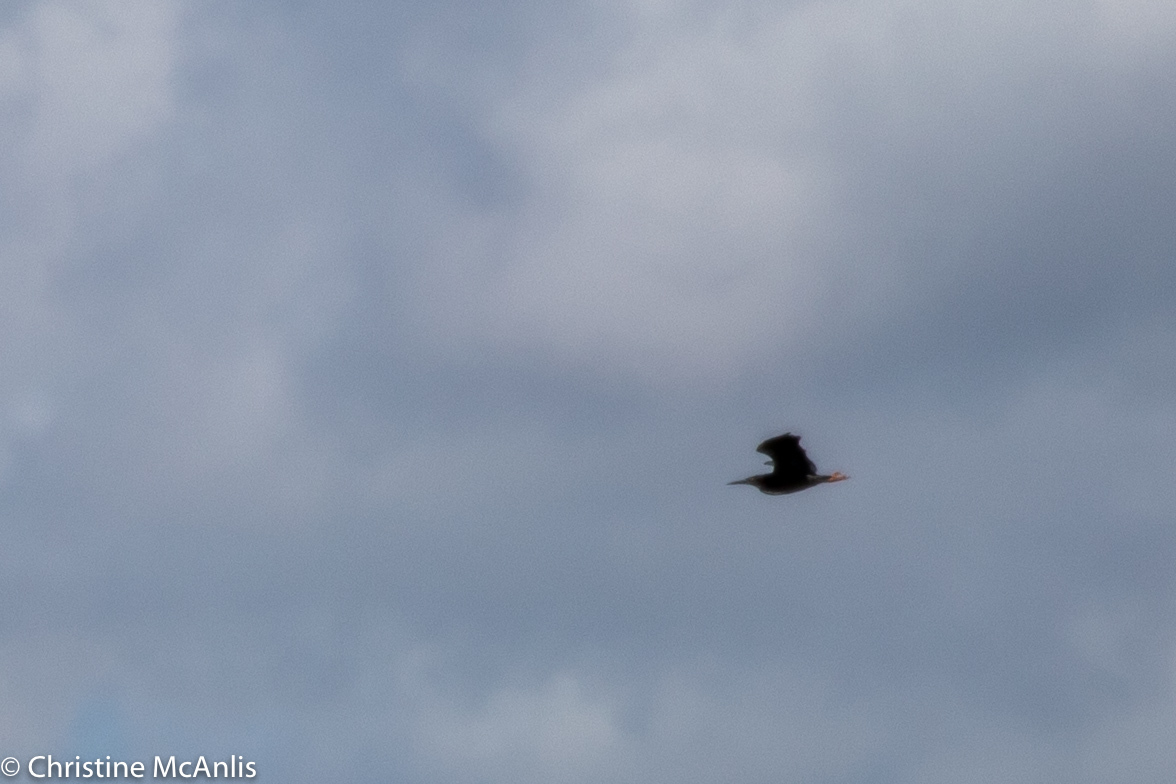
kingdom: Animalia
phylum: Chordata
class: Aves
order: Pelecaniformes
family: Ardeidae
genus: Butorides
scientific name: Butorides virescens
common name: Green heron
